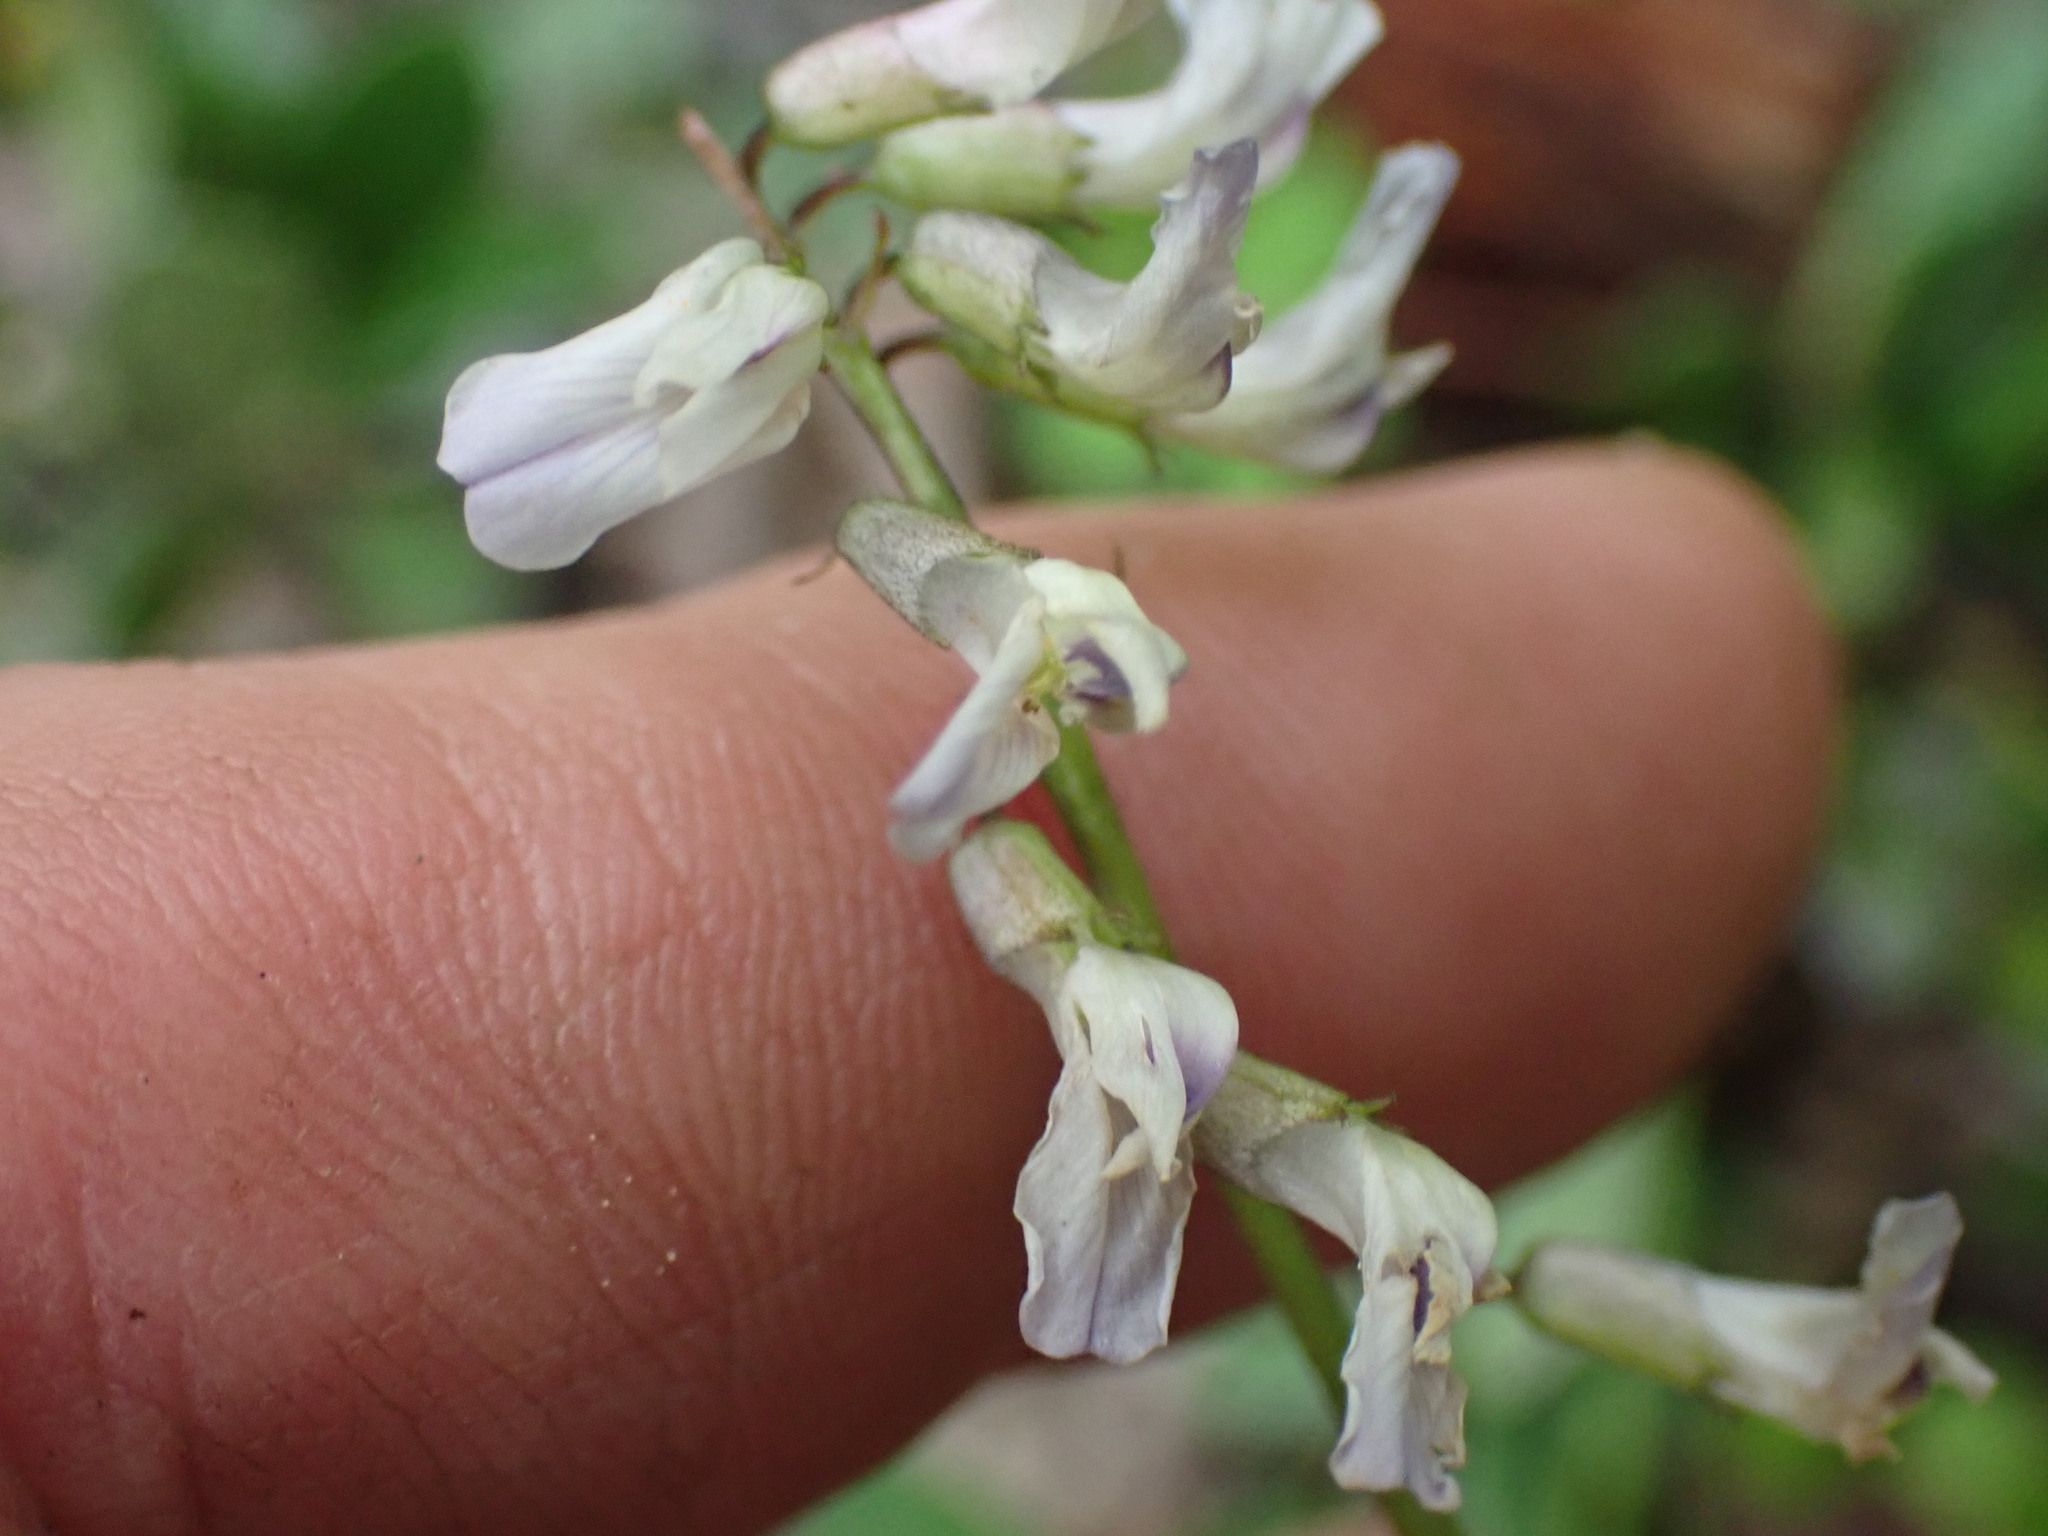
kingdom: Plantae
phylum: Tracheophyta
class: Magnoliopsida
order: Fabales
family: Fabaceae
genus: Astragalus
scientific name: Astragalus miser
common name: Timber milkvetch
